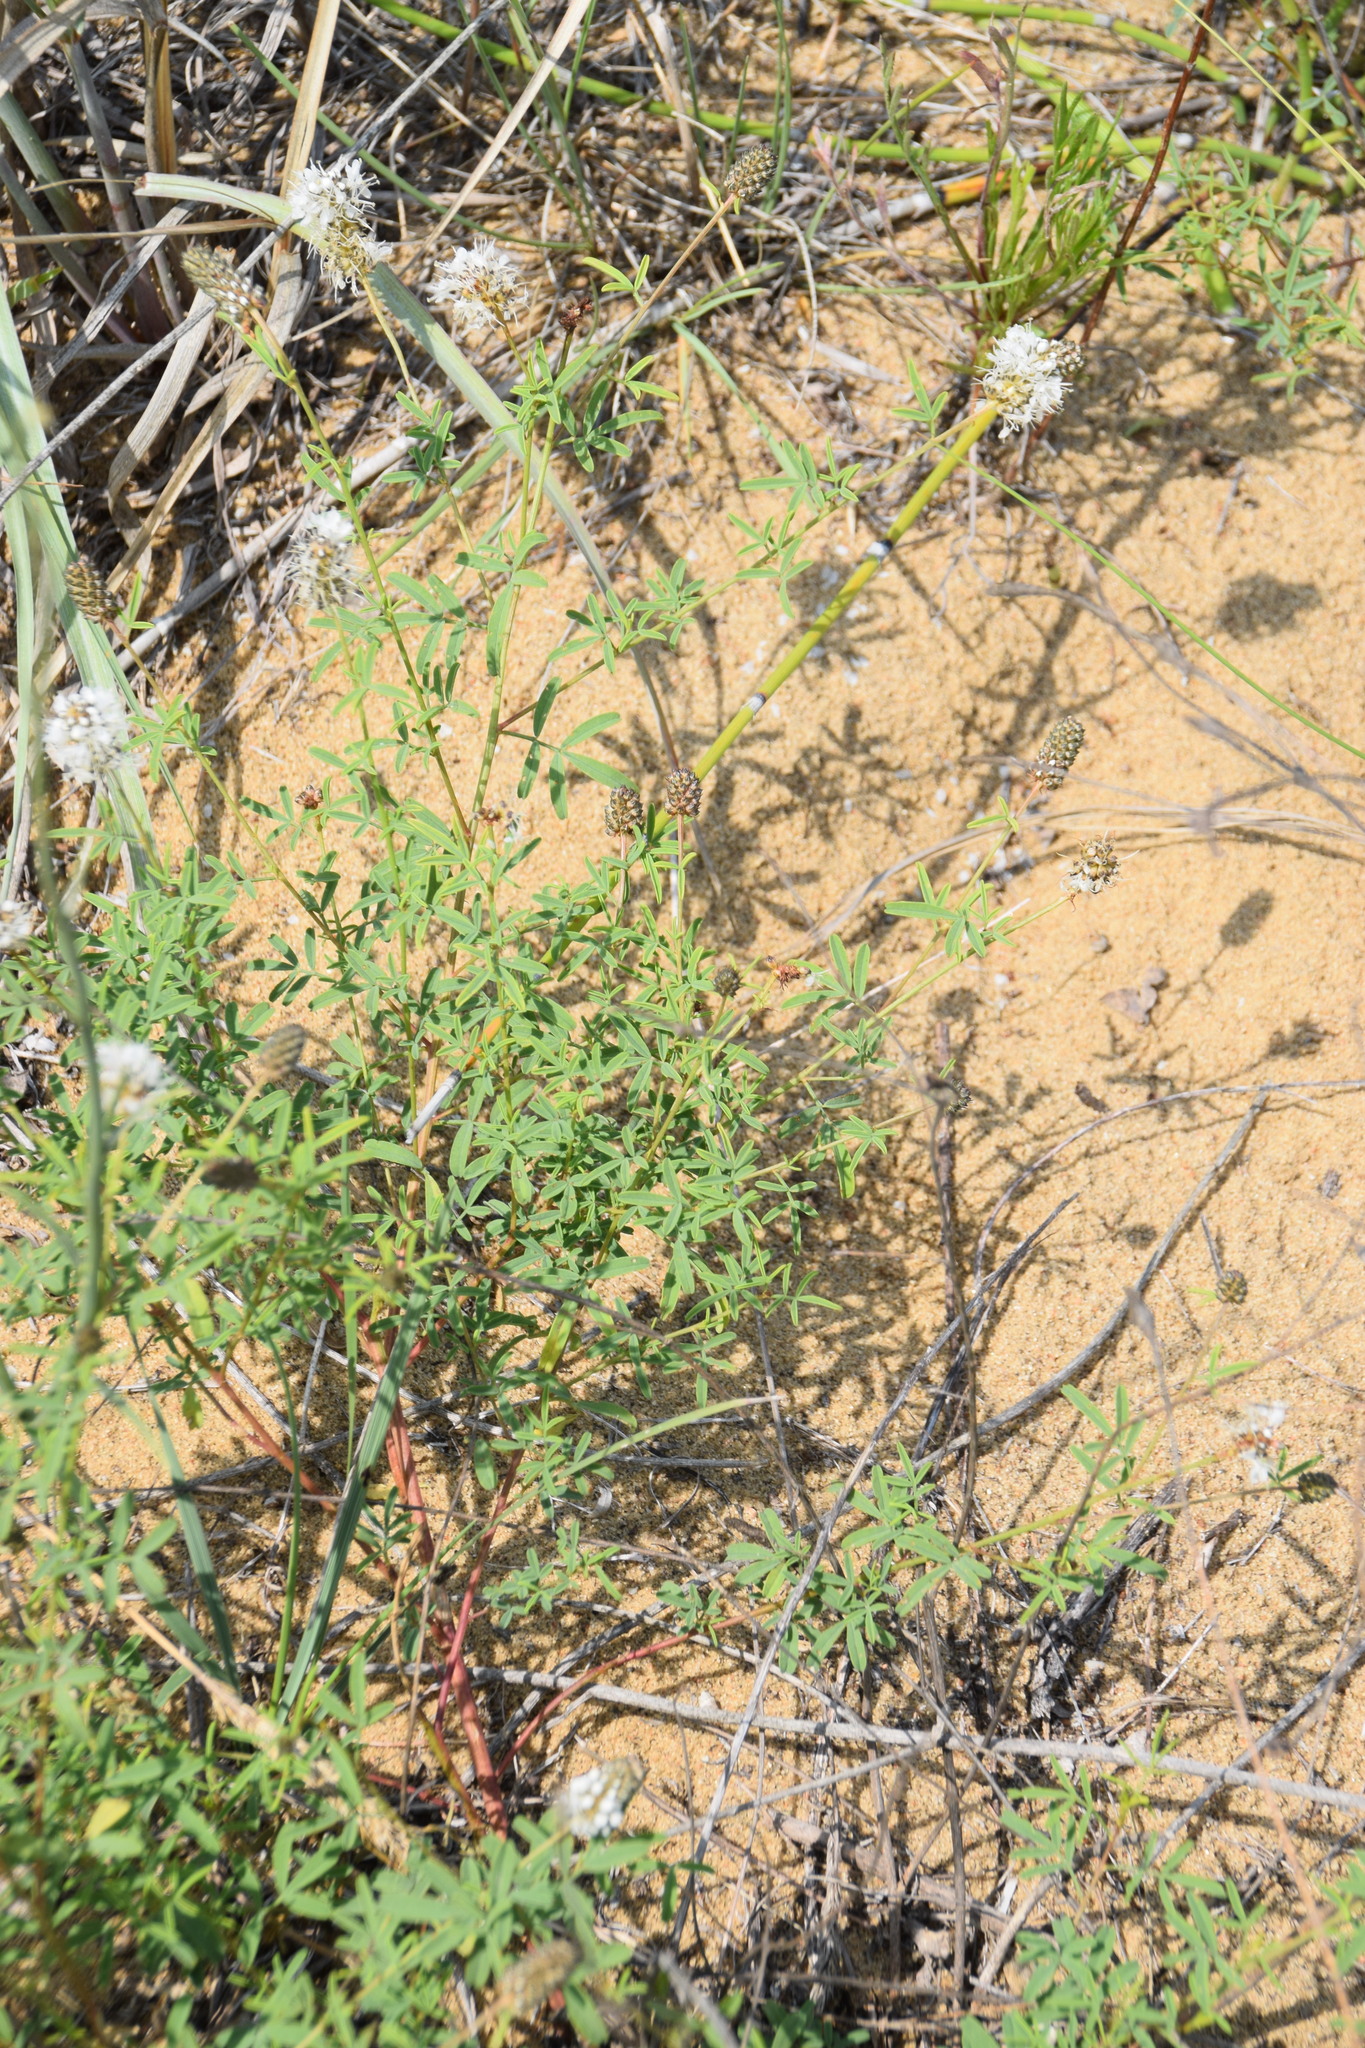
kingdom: Plantae
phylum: Tracheophyta
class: Magnoliopsida
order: Fabales
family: Fabaceae
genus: Dalea
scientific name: Dalea candida
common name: White prairie-clover
